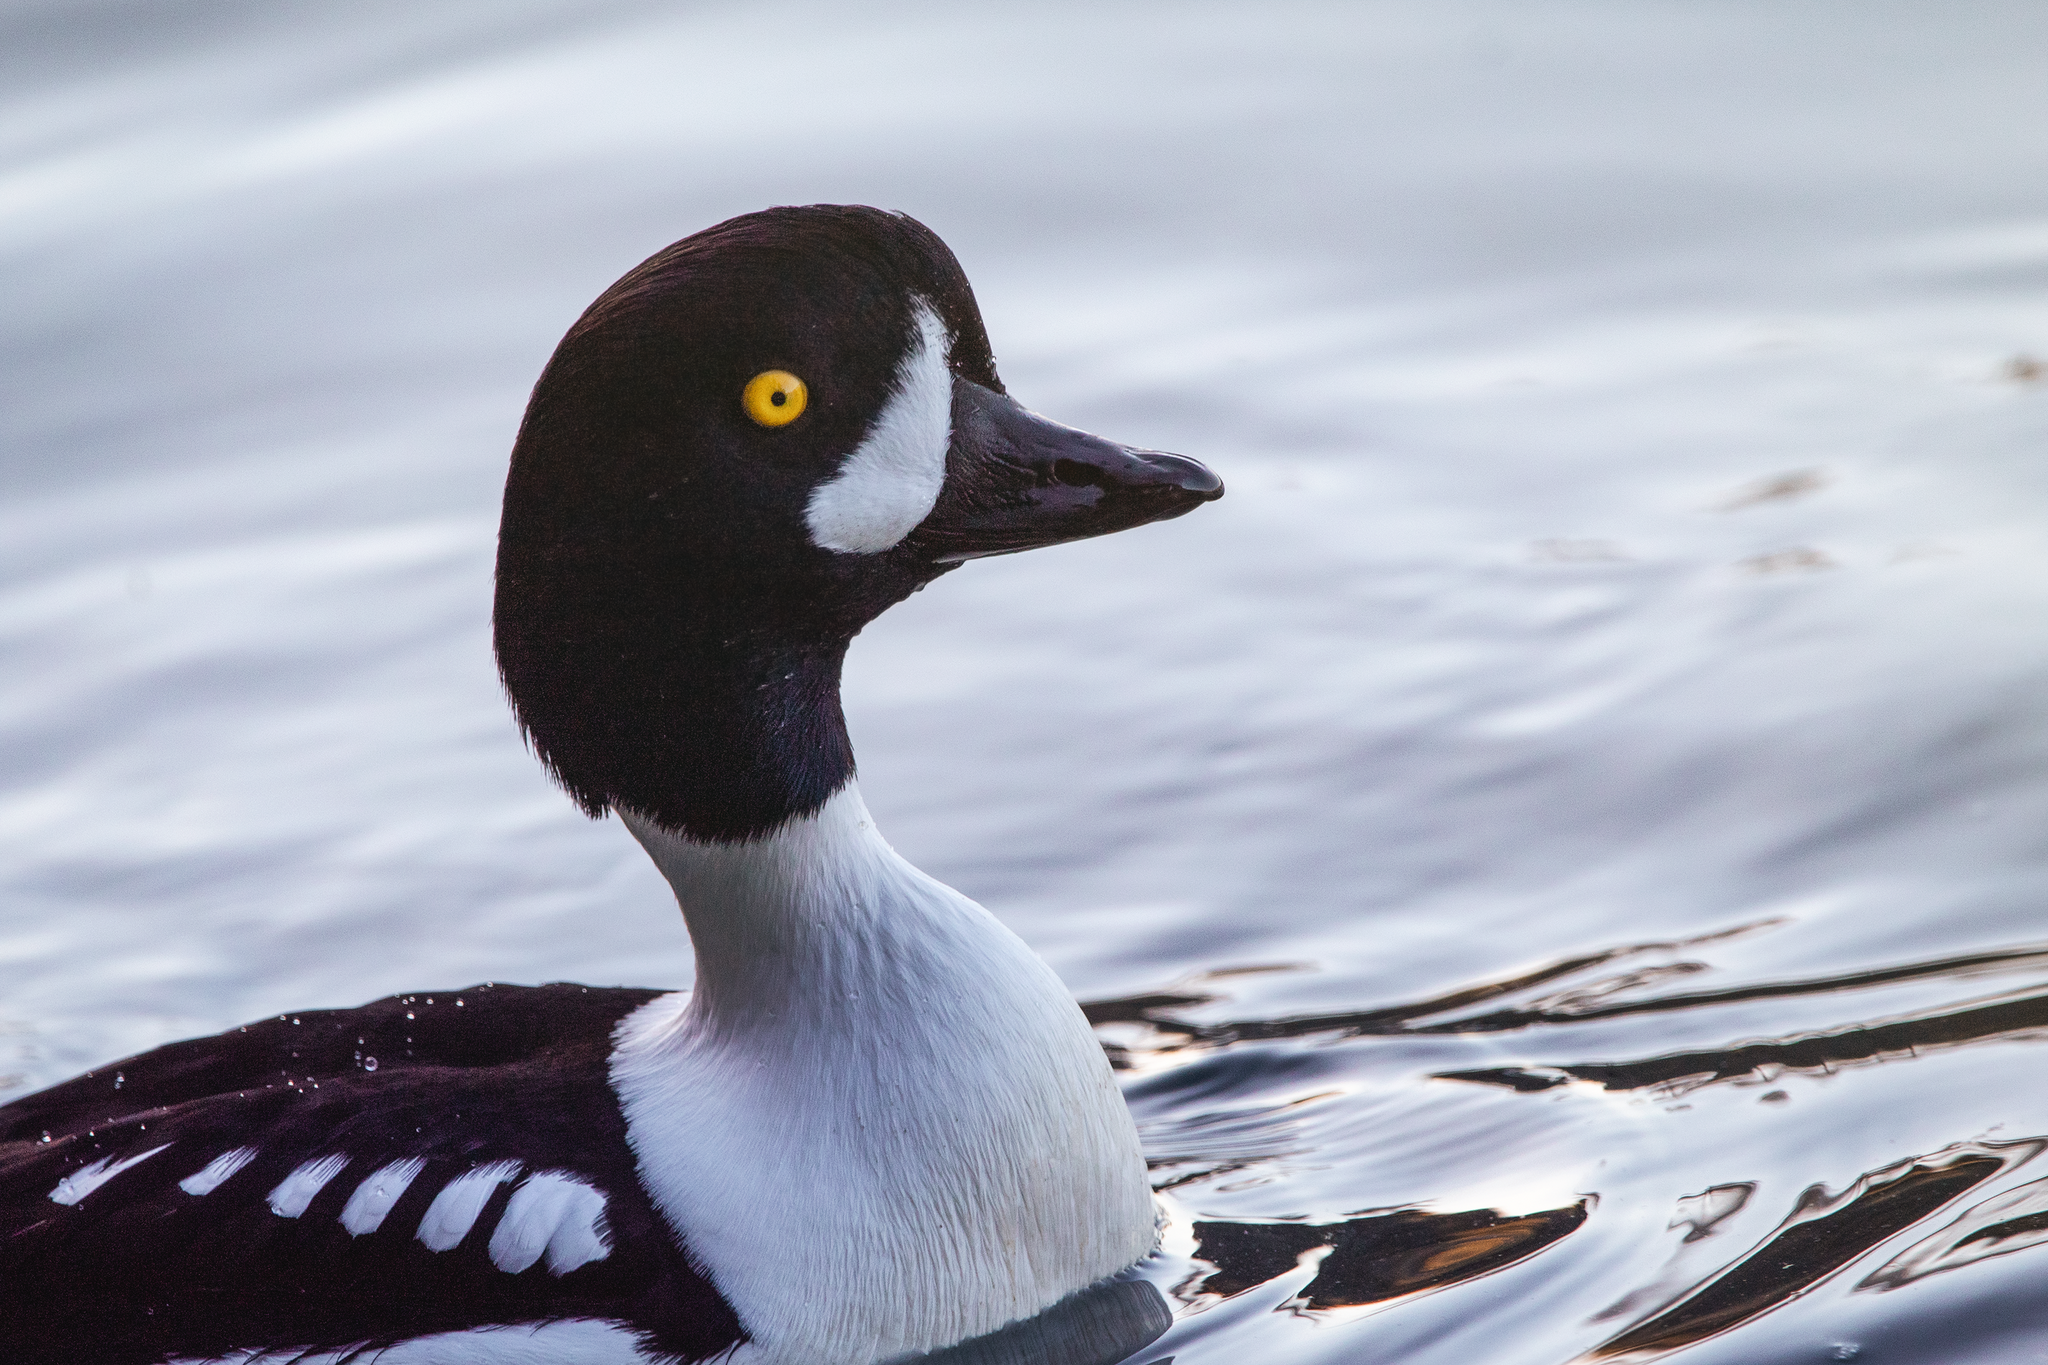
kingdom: Animalia
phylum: Chordata
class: Aves
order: Anseriformes
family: Anatidae
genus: Bucephala
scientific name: Bucephala islandica
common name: Barrow's goldeneye
